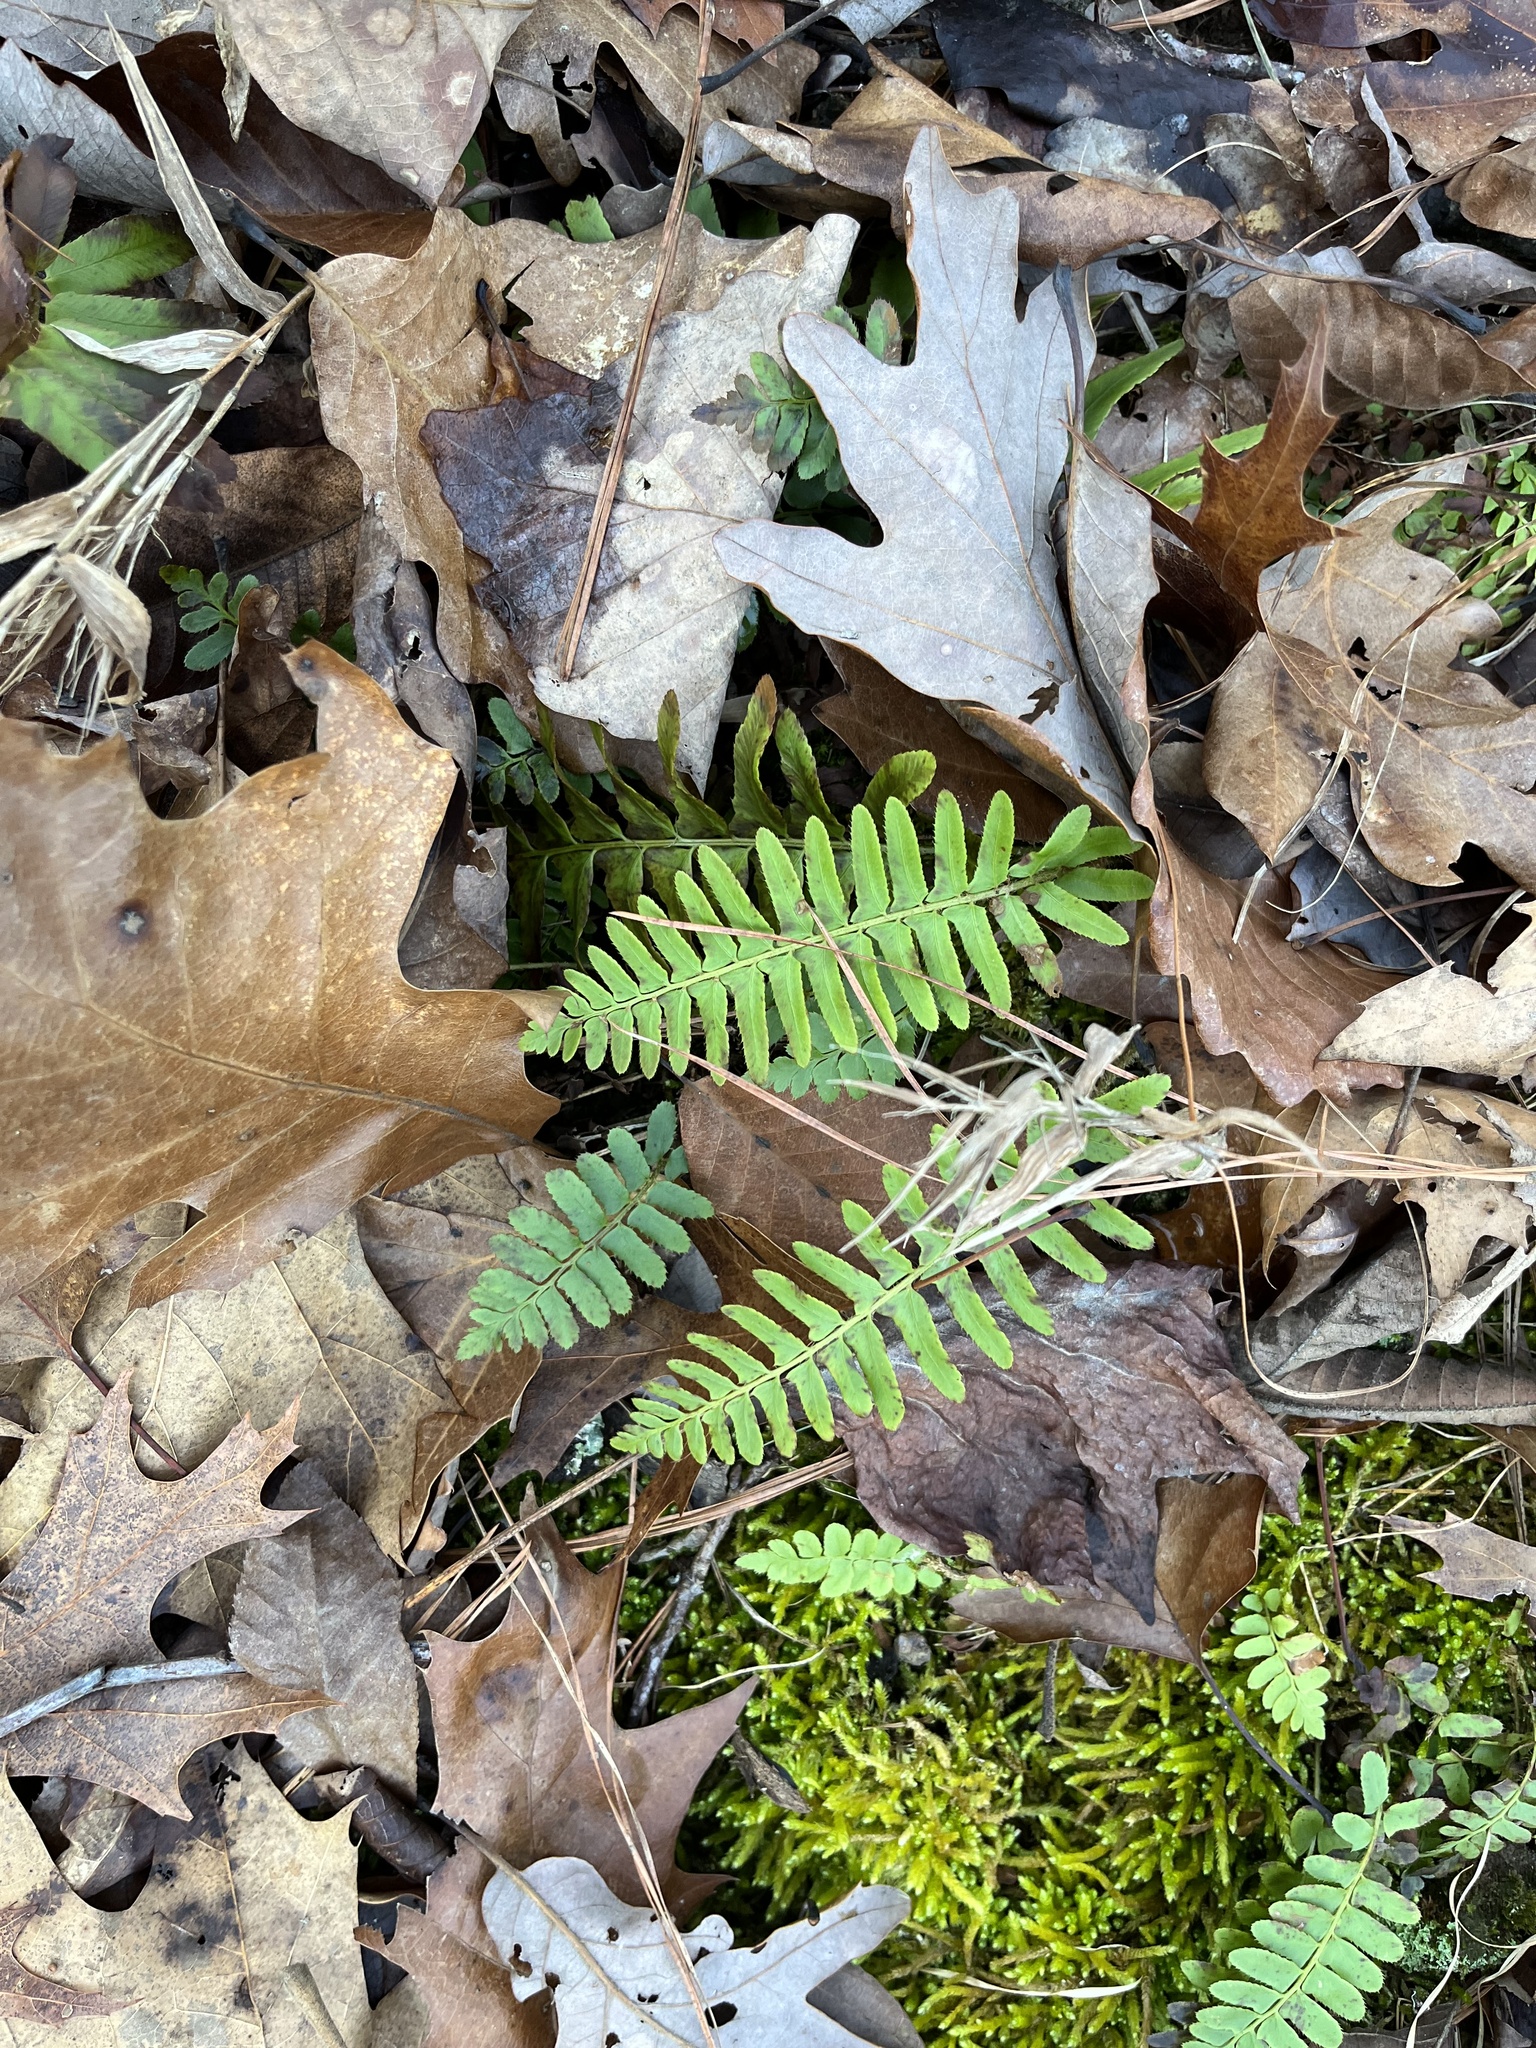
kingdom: Plantae
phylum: Tracheophyta
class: Polypodiopsida
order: Polypodiales
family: Dryopteridaceae
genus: Polystichum
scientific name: Polystichum acrostichoides
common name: Christmas fern
